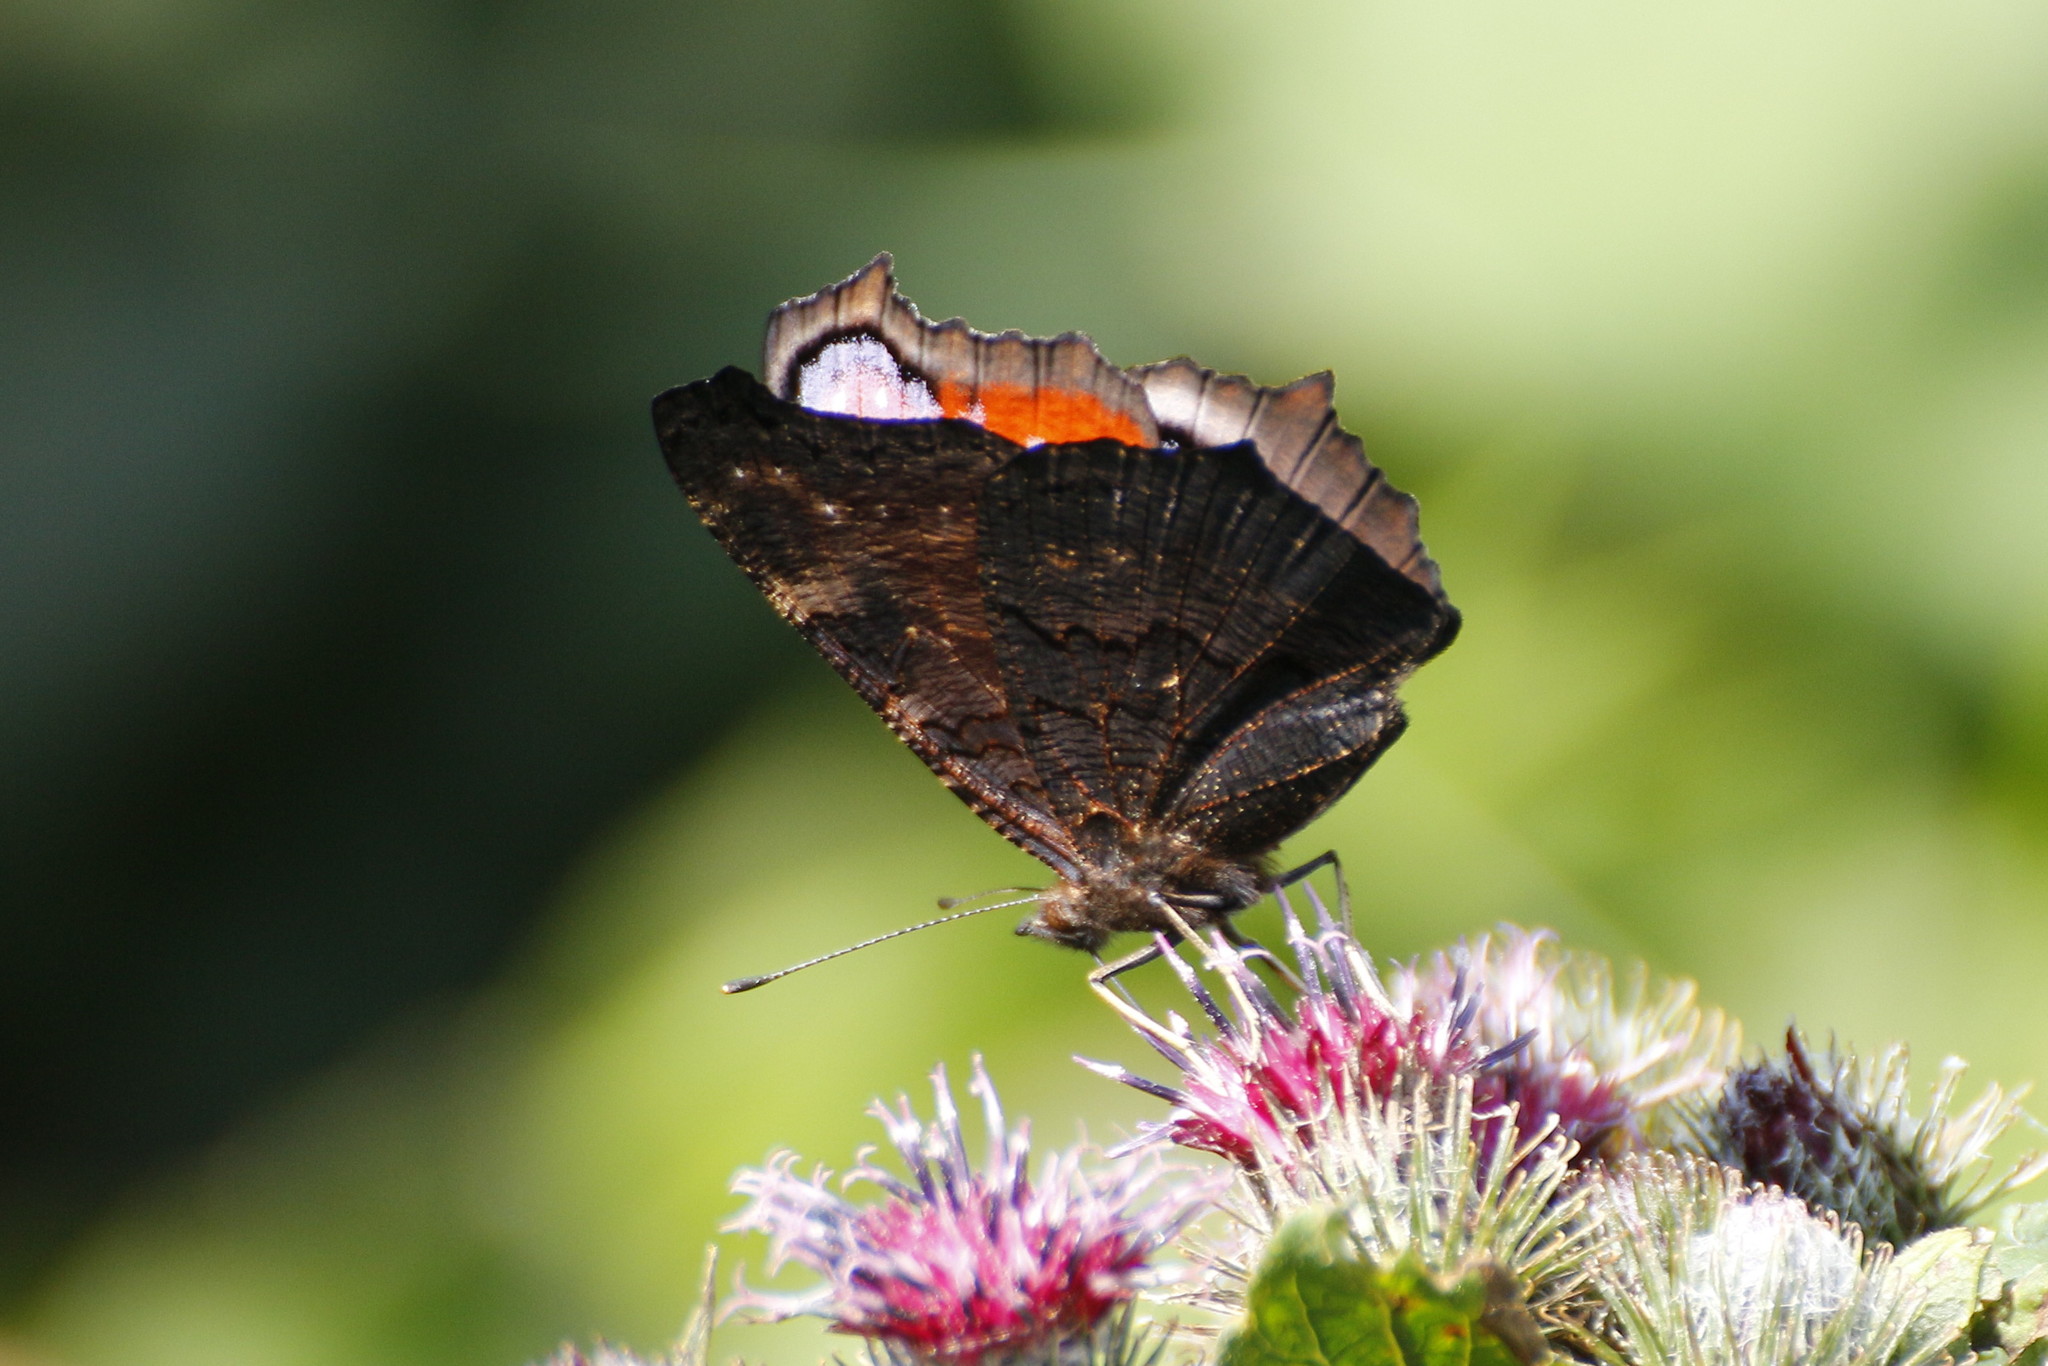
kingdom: Animalia
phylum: Arthropoda
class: Insecta
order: Lepidoptera
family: Nymphalidae
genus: Aglais
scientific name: Aglais io
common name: Peacock
